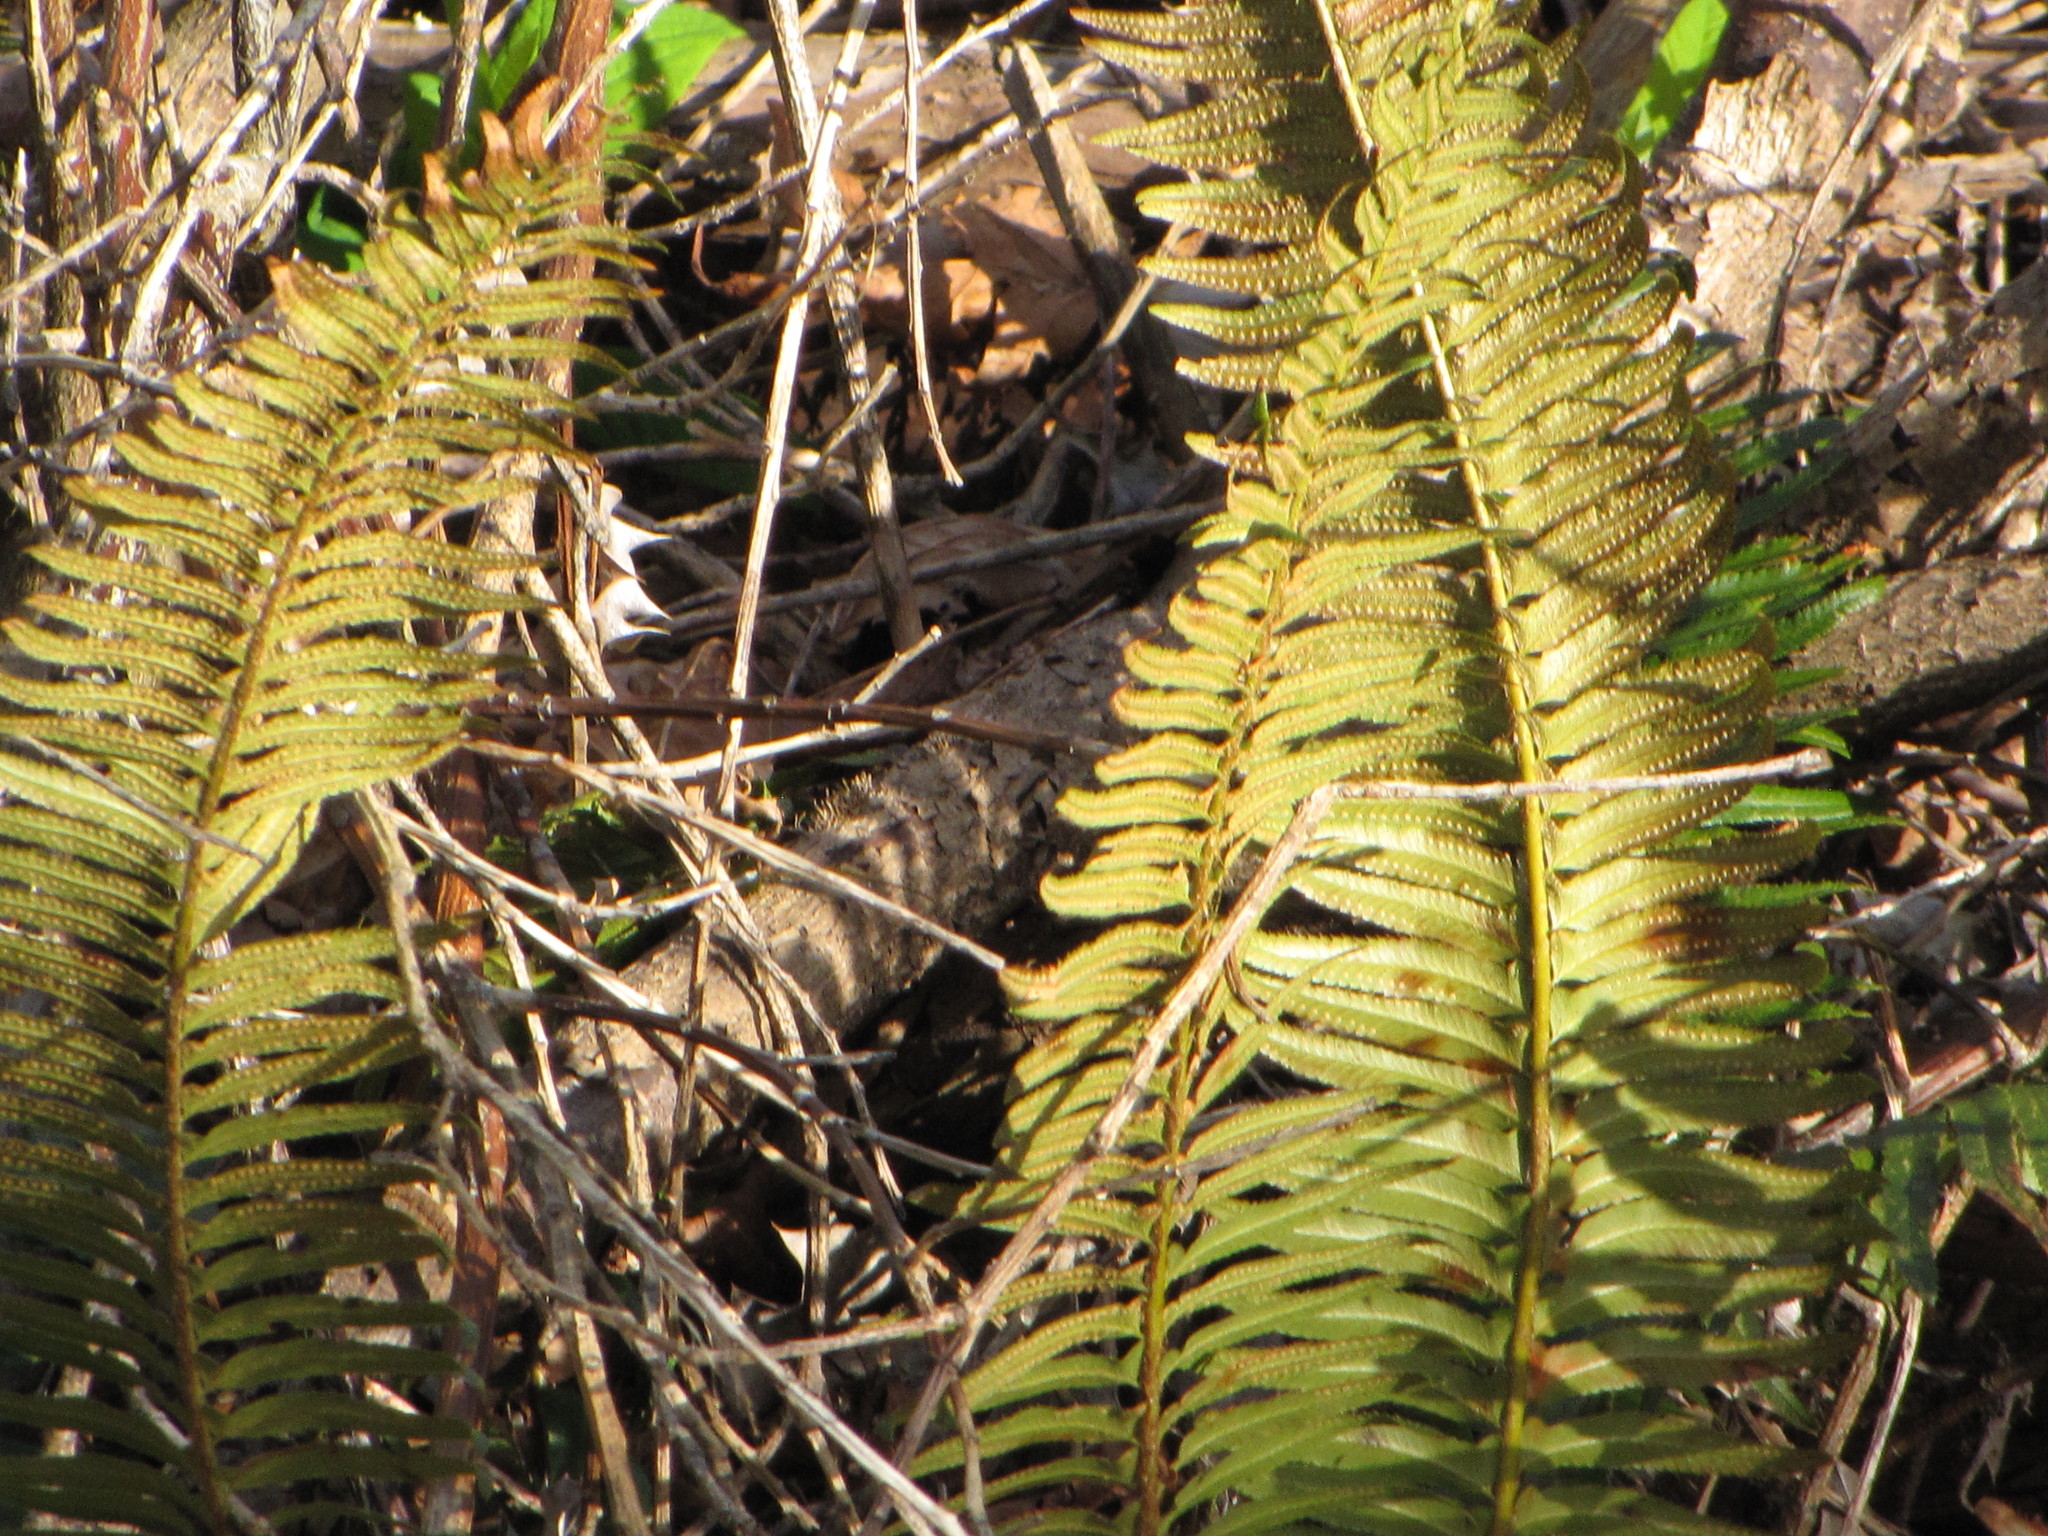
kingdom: Plantae
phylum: Tracheophyta
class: Polypodiopsida
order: Polypodiales
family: Dryopteridaceae
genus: Polystichum
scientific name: Polystichum munitum
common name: Western sword-fern
